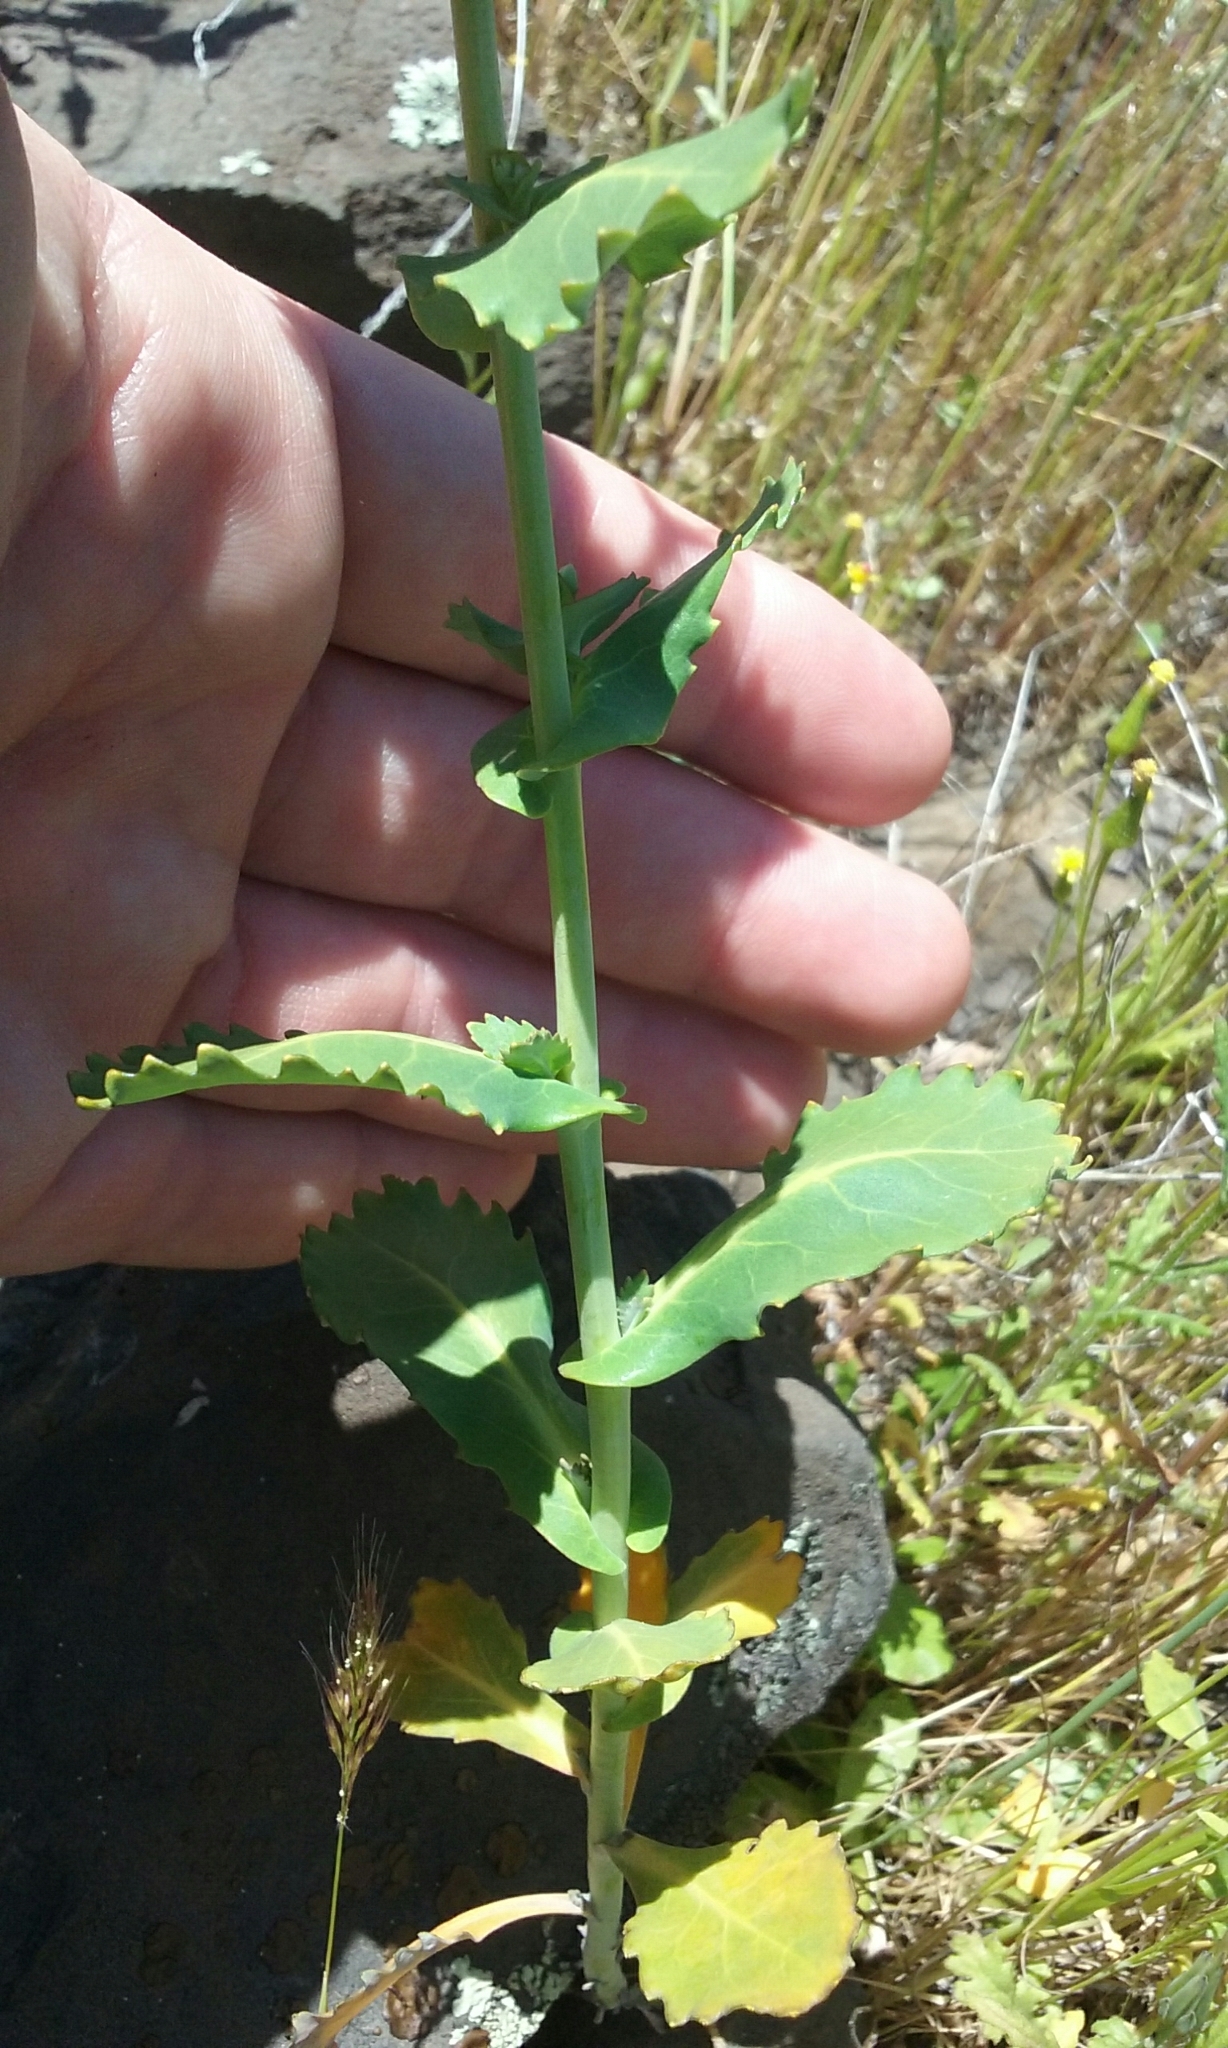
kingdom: Plantae
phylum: Tracheophyta
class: Magnoliopsida
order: Brassicales
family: Brassicaceae
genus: Streptanthus
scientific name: Streptanthus tortuosus
